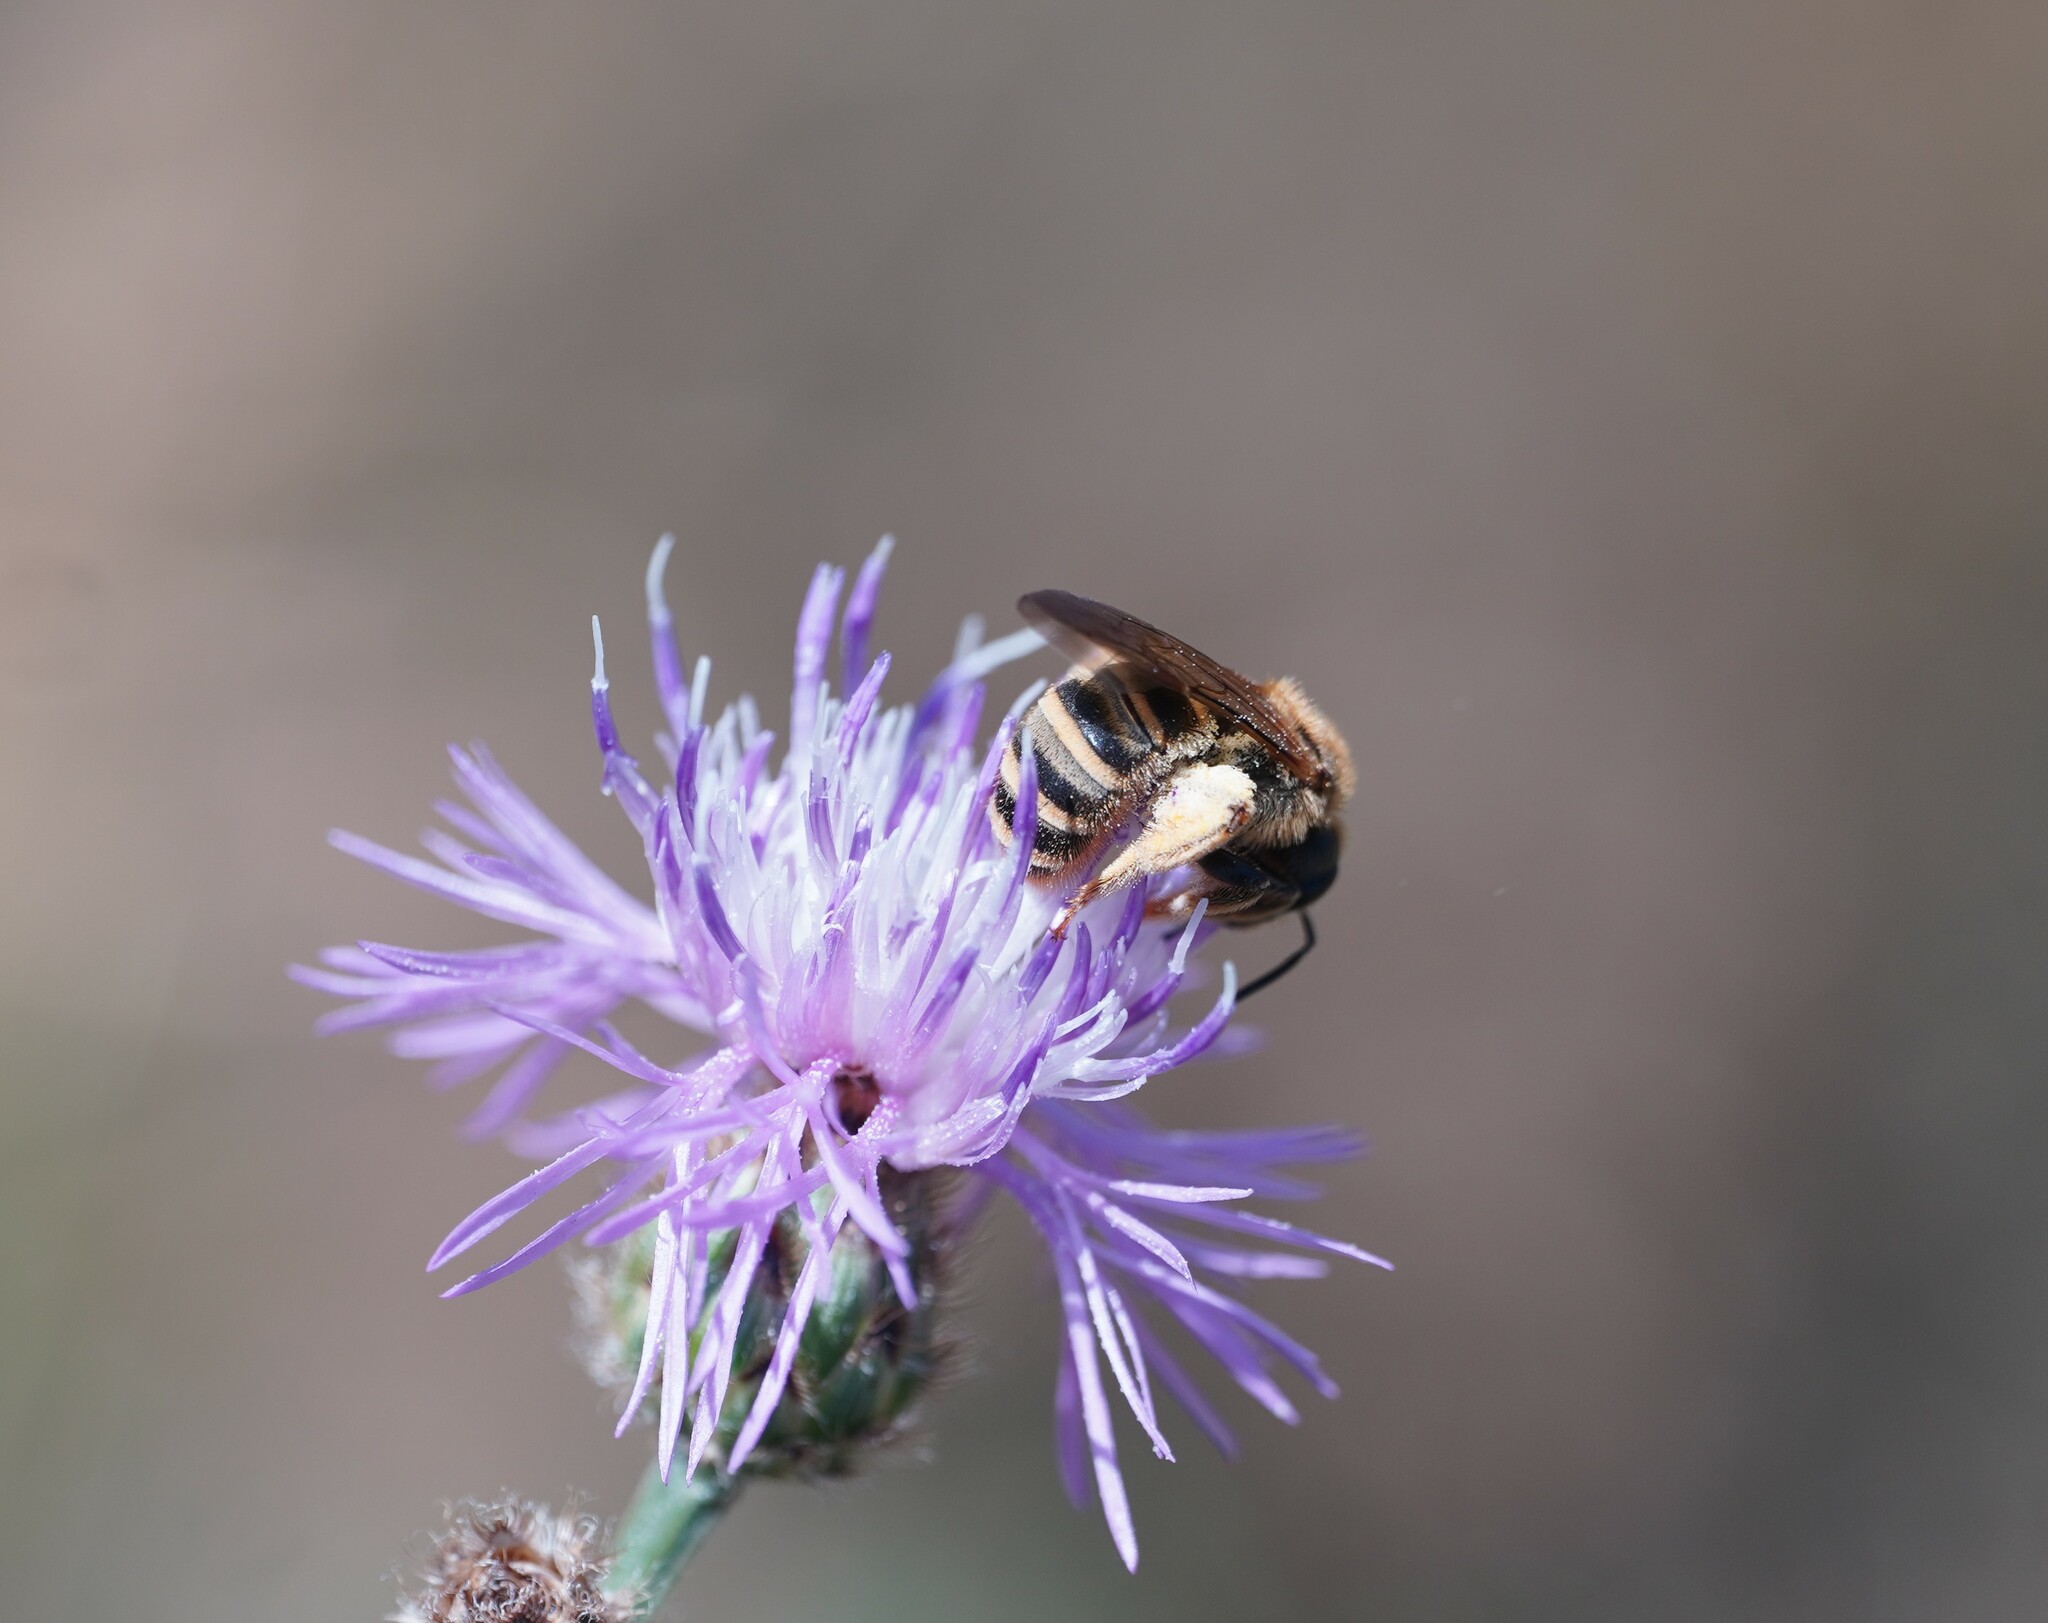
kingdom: Animalia
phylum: Arthropoda
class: Insecta
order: Hymenoptera
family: Halictidae
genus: Halictus
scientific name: Halictus scabiosae
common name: Great banded furrow bee
